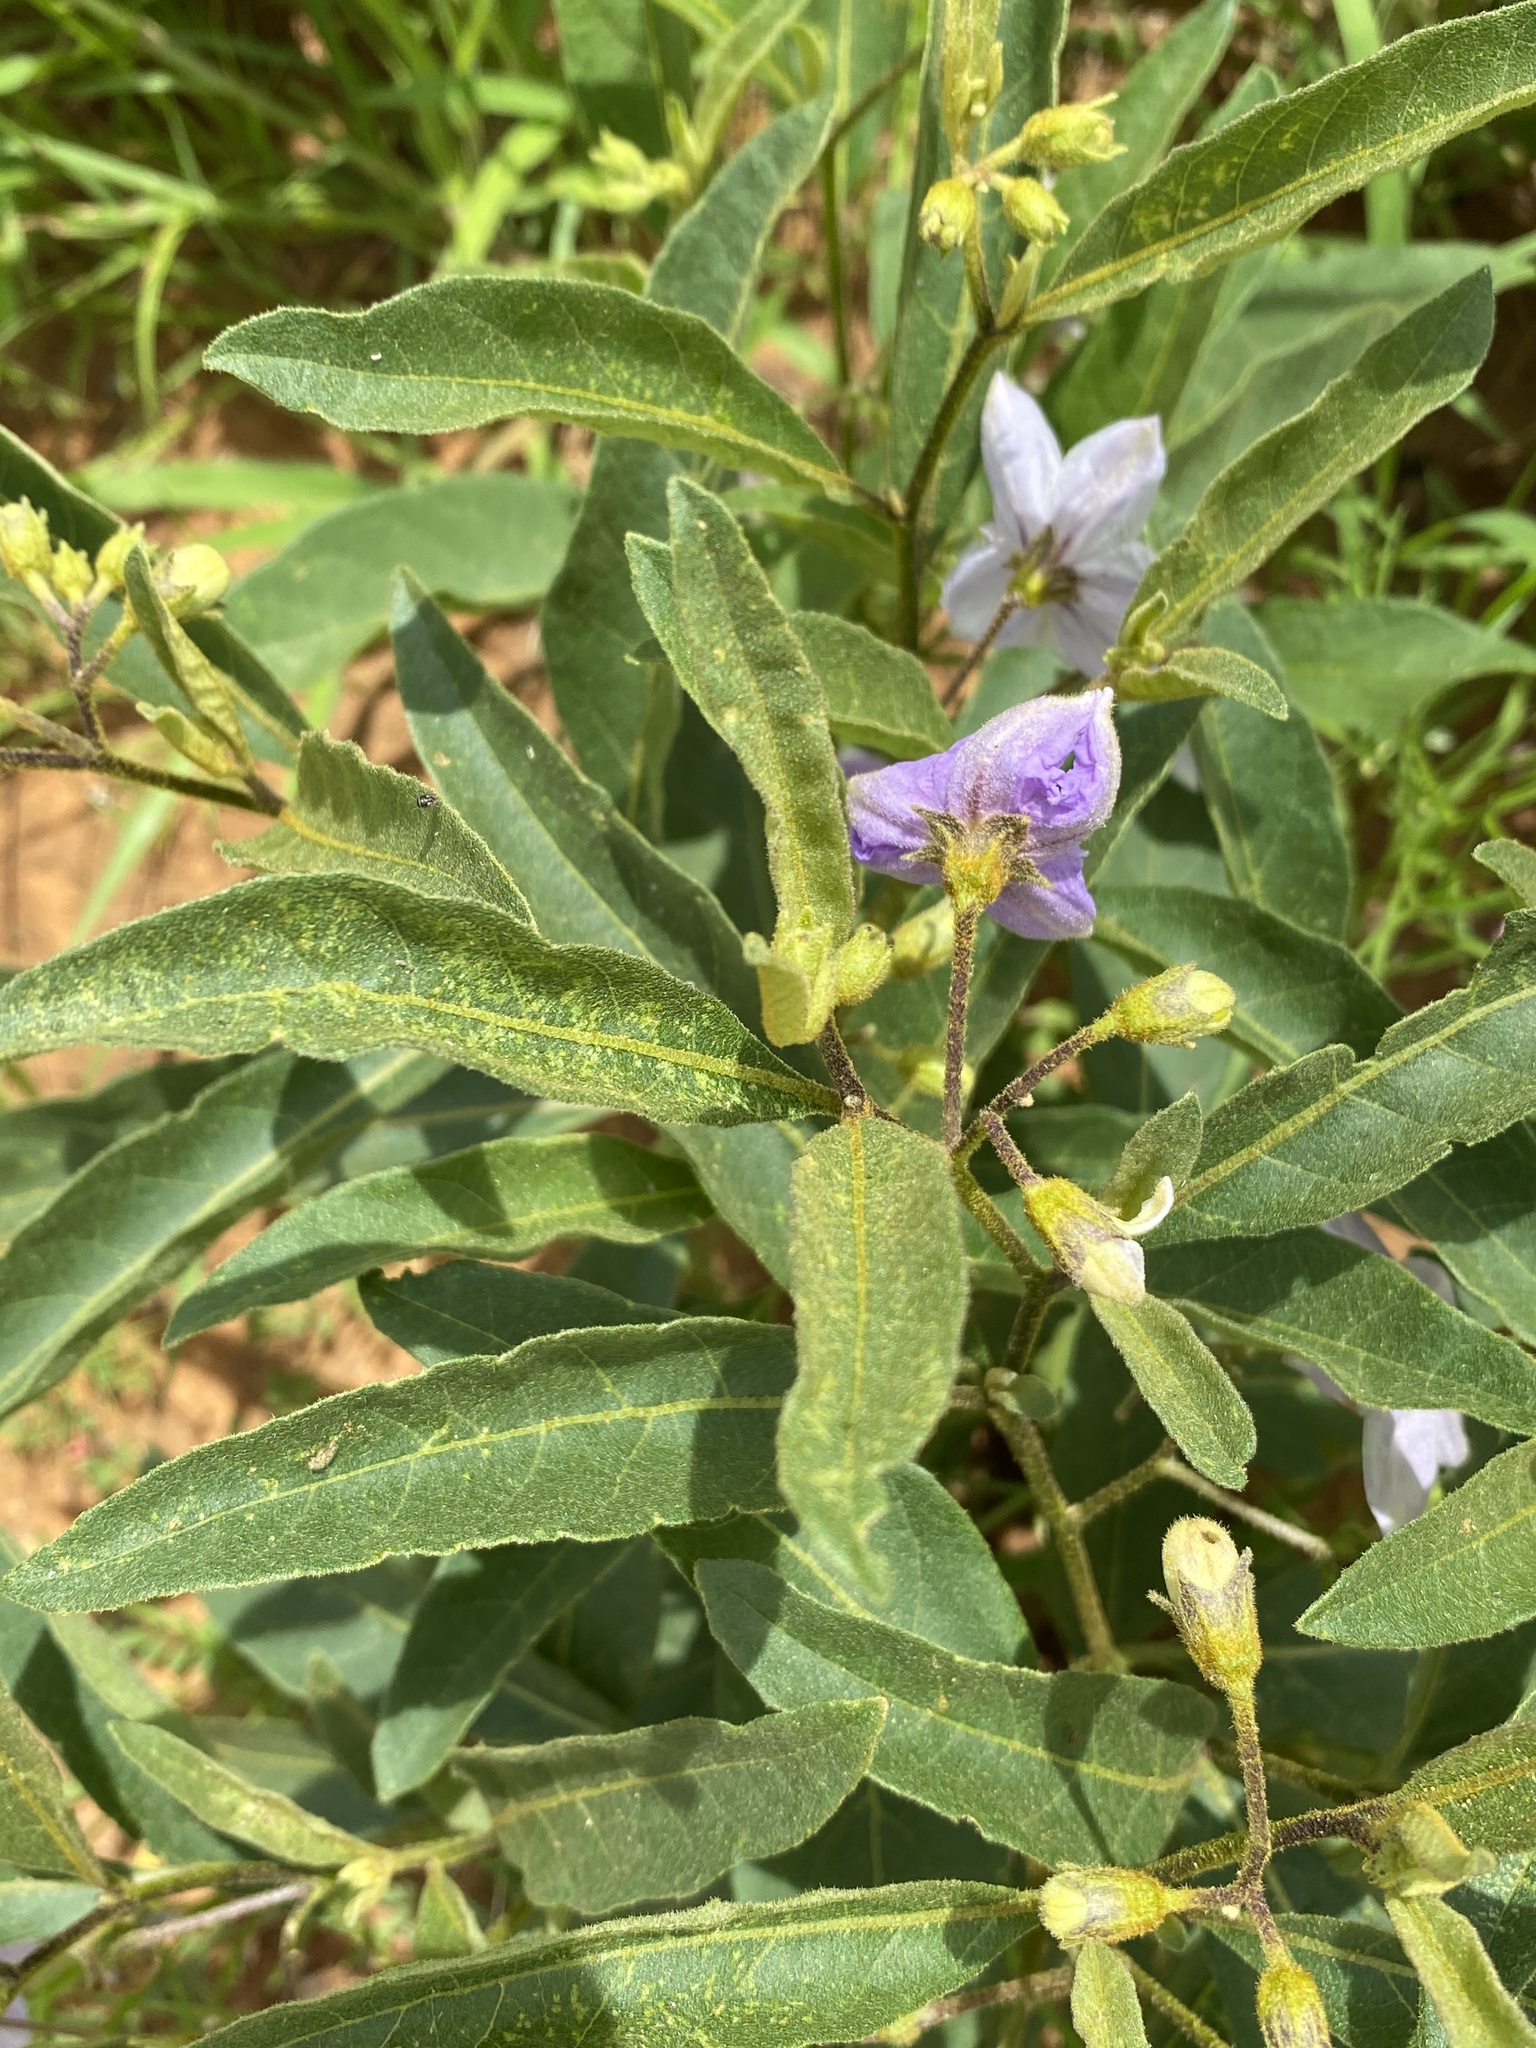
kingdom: Plantae
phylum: Tracheophyta
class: Magnoliopsida
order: Solanales
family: Solanaceae
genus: Solanum
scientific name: Solanum campylacanthum
